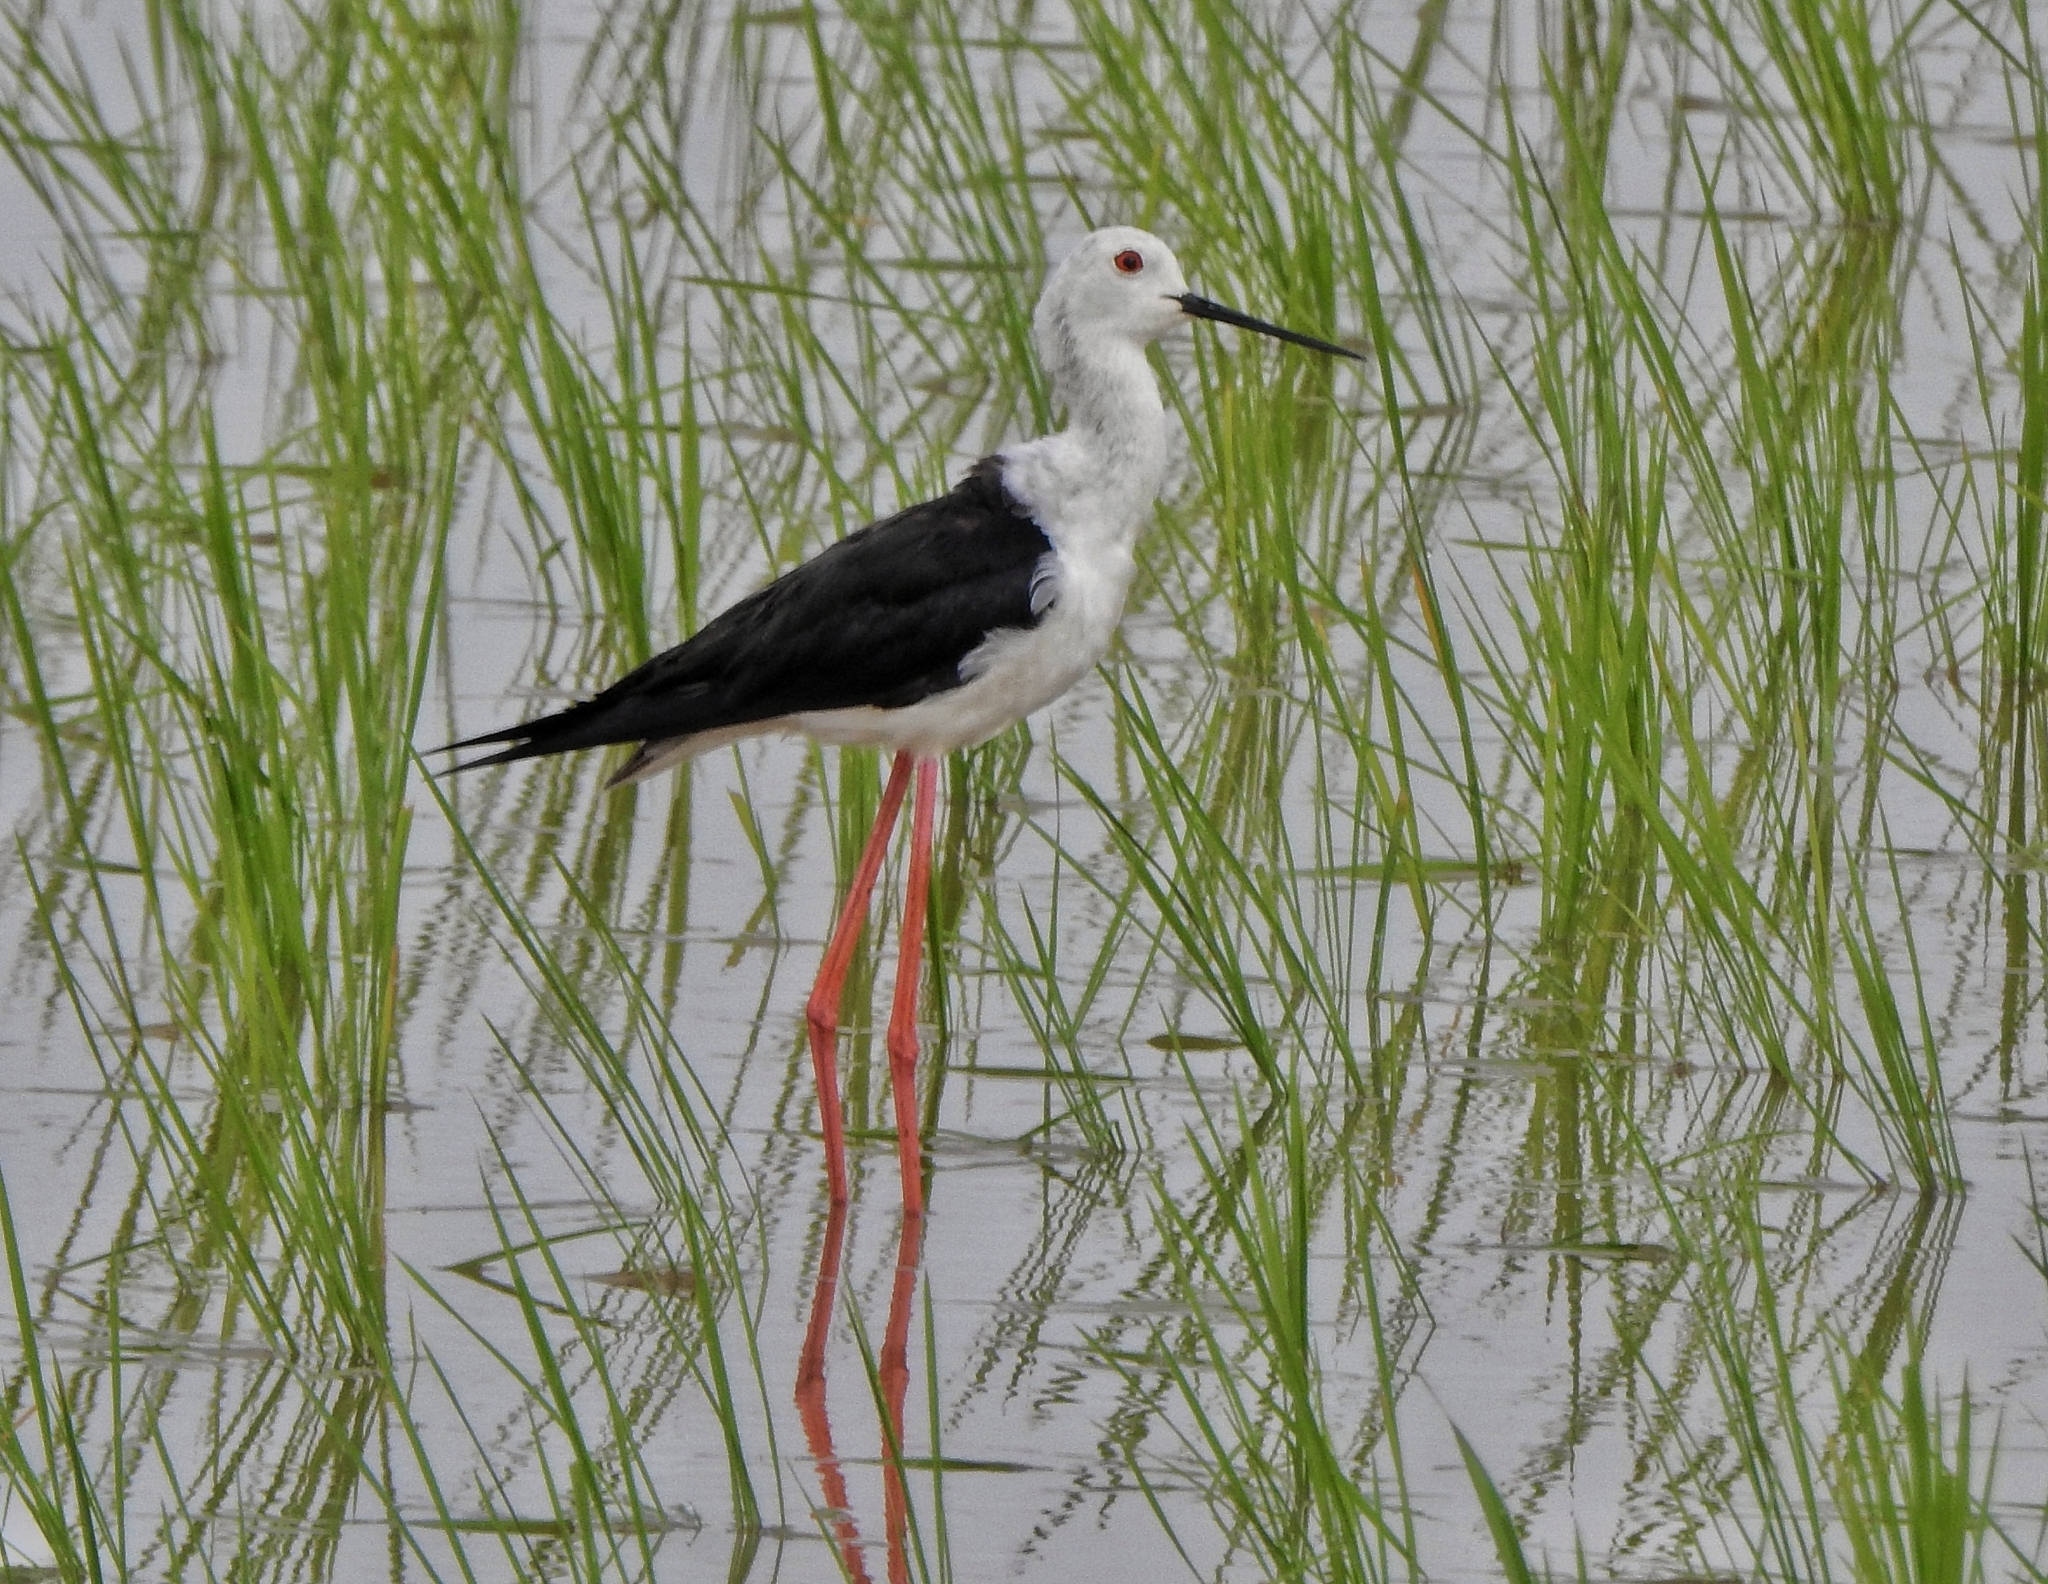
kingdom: Animalia
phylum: Chordata
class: Aves
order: Charadriiformes
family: Recurvirostridae
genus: Himantopus
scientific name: Himantopus himantopus
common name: Black-winged stilt
